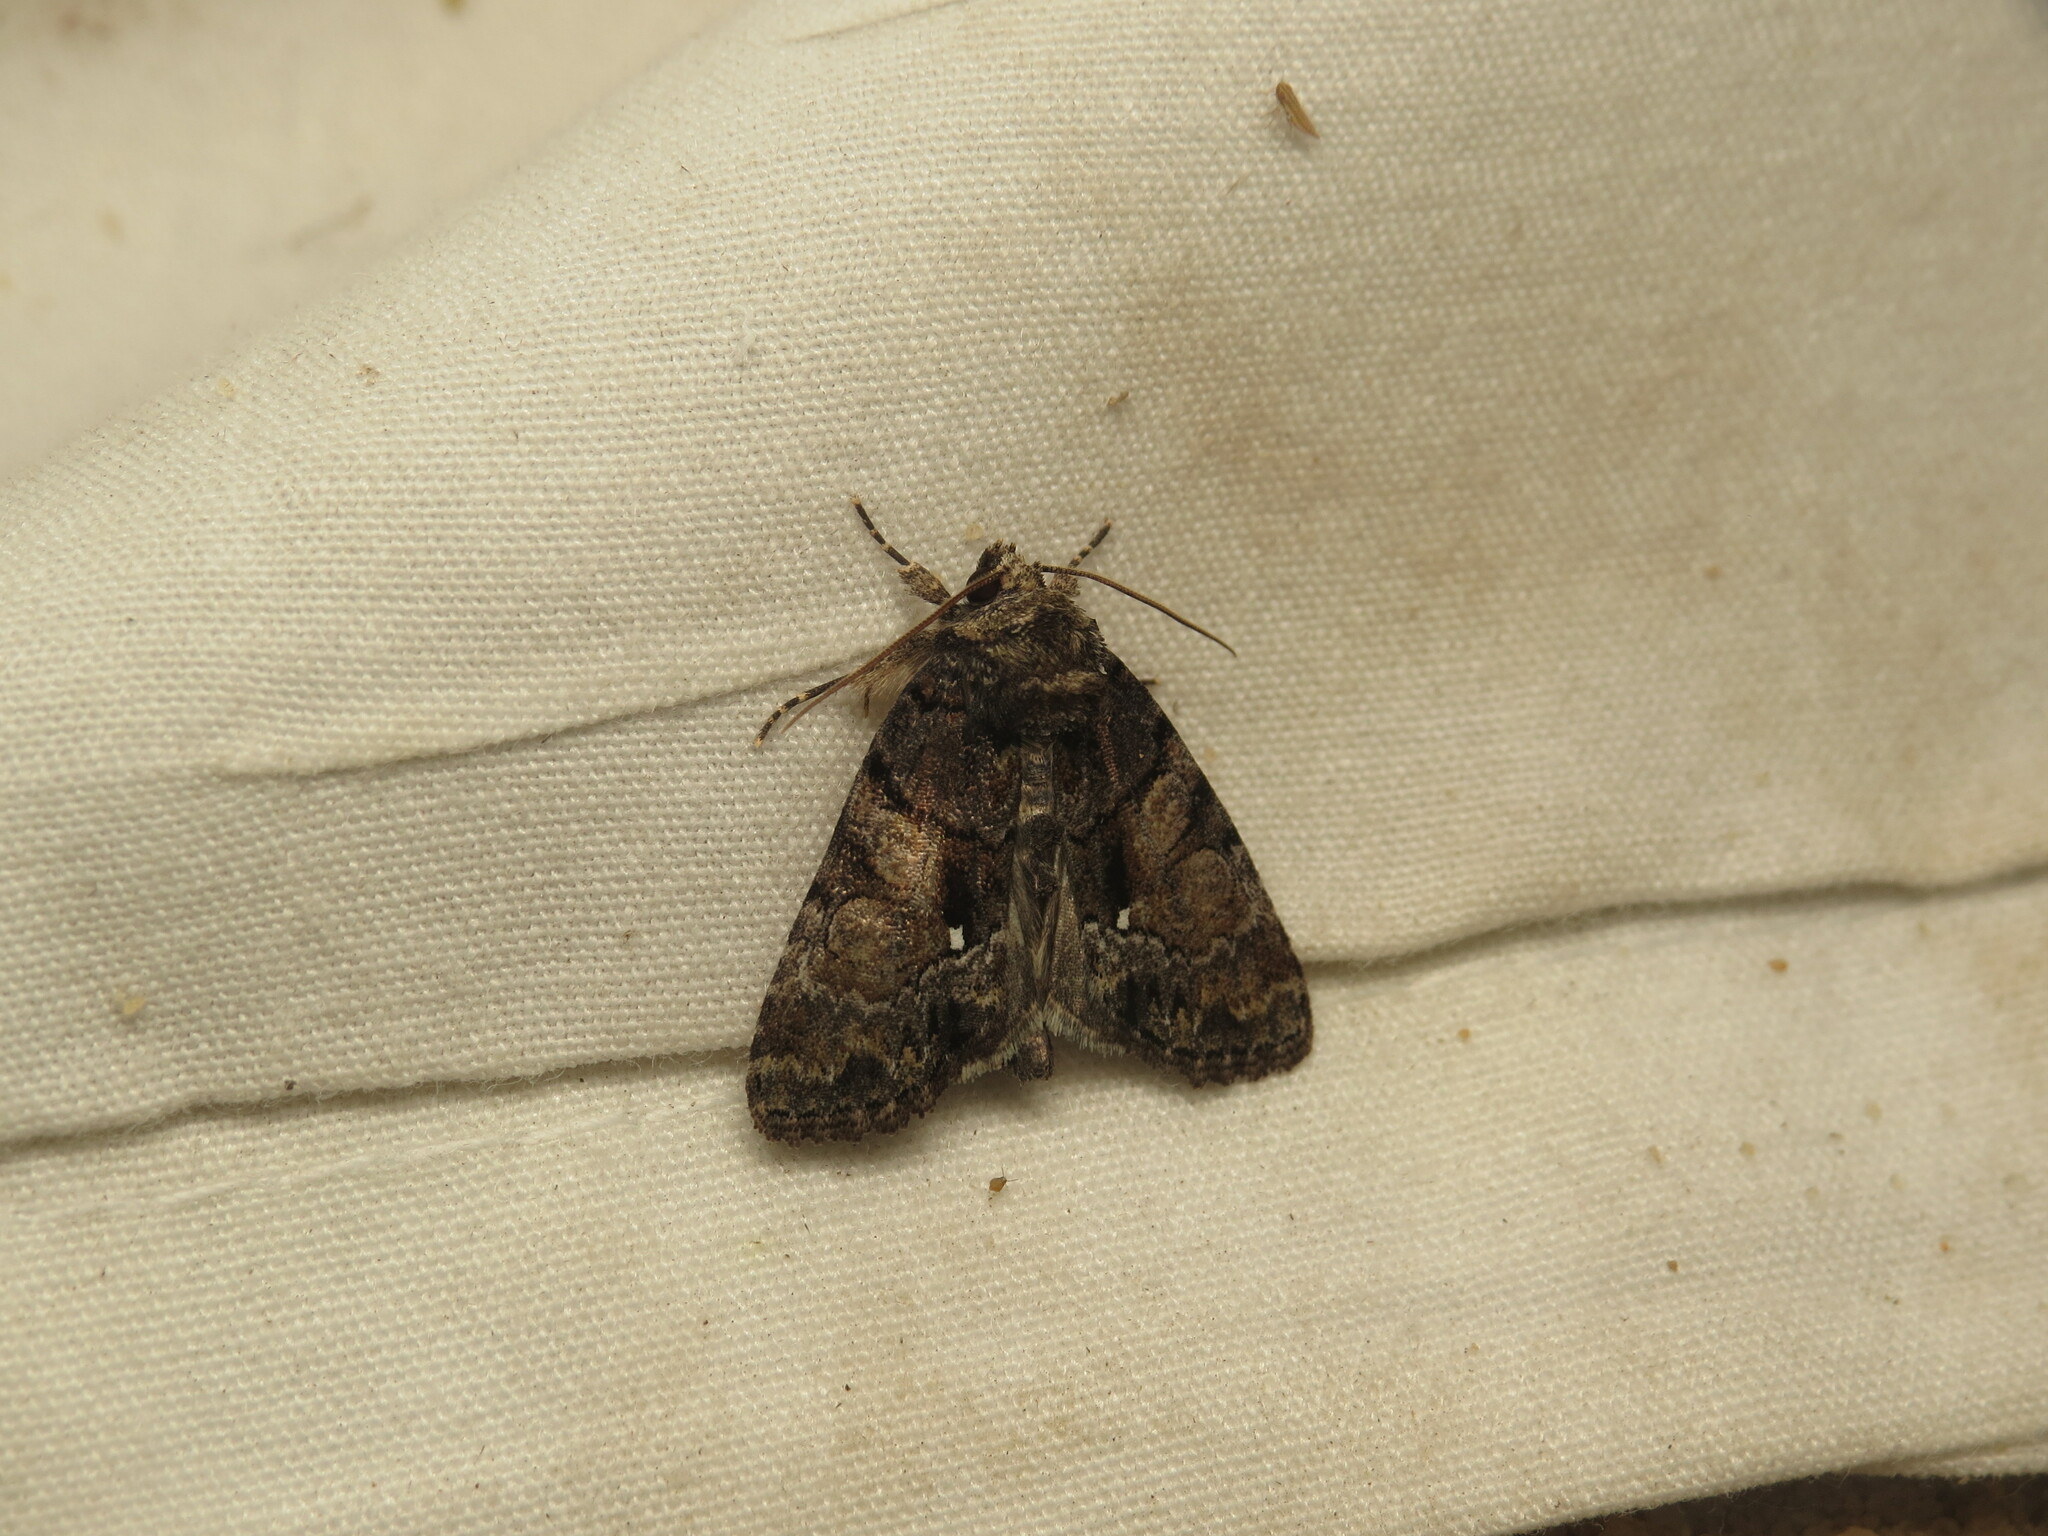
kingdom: Animalia
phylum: Arthropoda
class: Insecta
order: Lepidoptera
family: Noctuidae
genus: Chytonix
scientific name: Chytonix palliatricula
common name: Cloaked marvel
